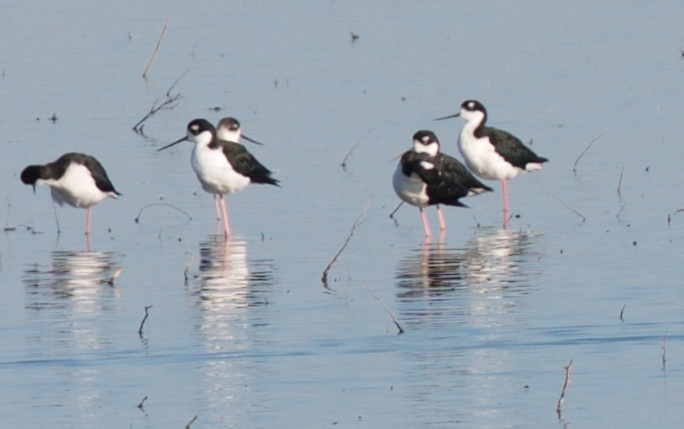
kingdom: Animalia
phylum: Chordata
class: Aves
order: Charadriiformes
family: Recurvirostridae
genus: Himantopus
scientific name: Himantopus mexicanus
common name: Black-necked stilt
